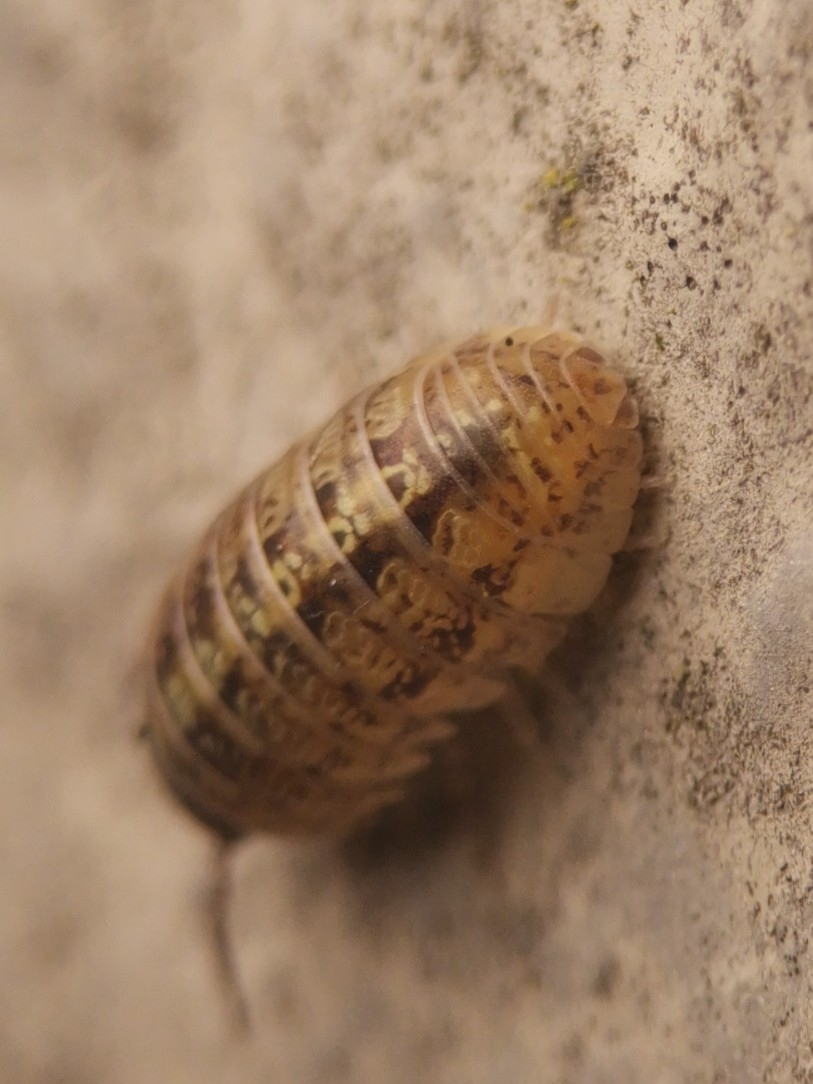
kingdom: Animalia
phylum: Arthropoda
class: Malacostraca
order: Isopoda
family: Armadillidiidae
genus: Armadillidium
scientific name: Armadillidium vulgare
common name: Common pill woodlouse
